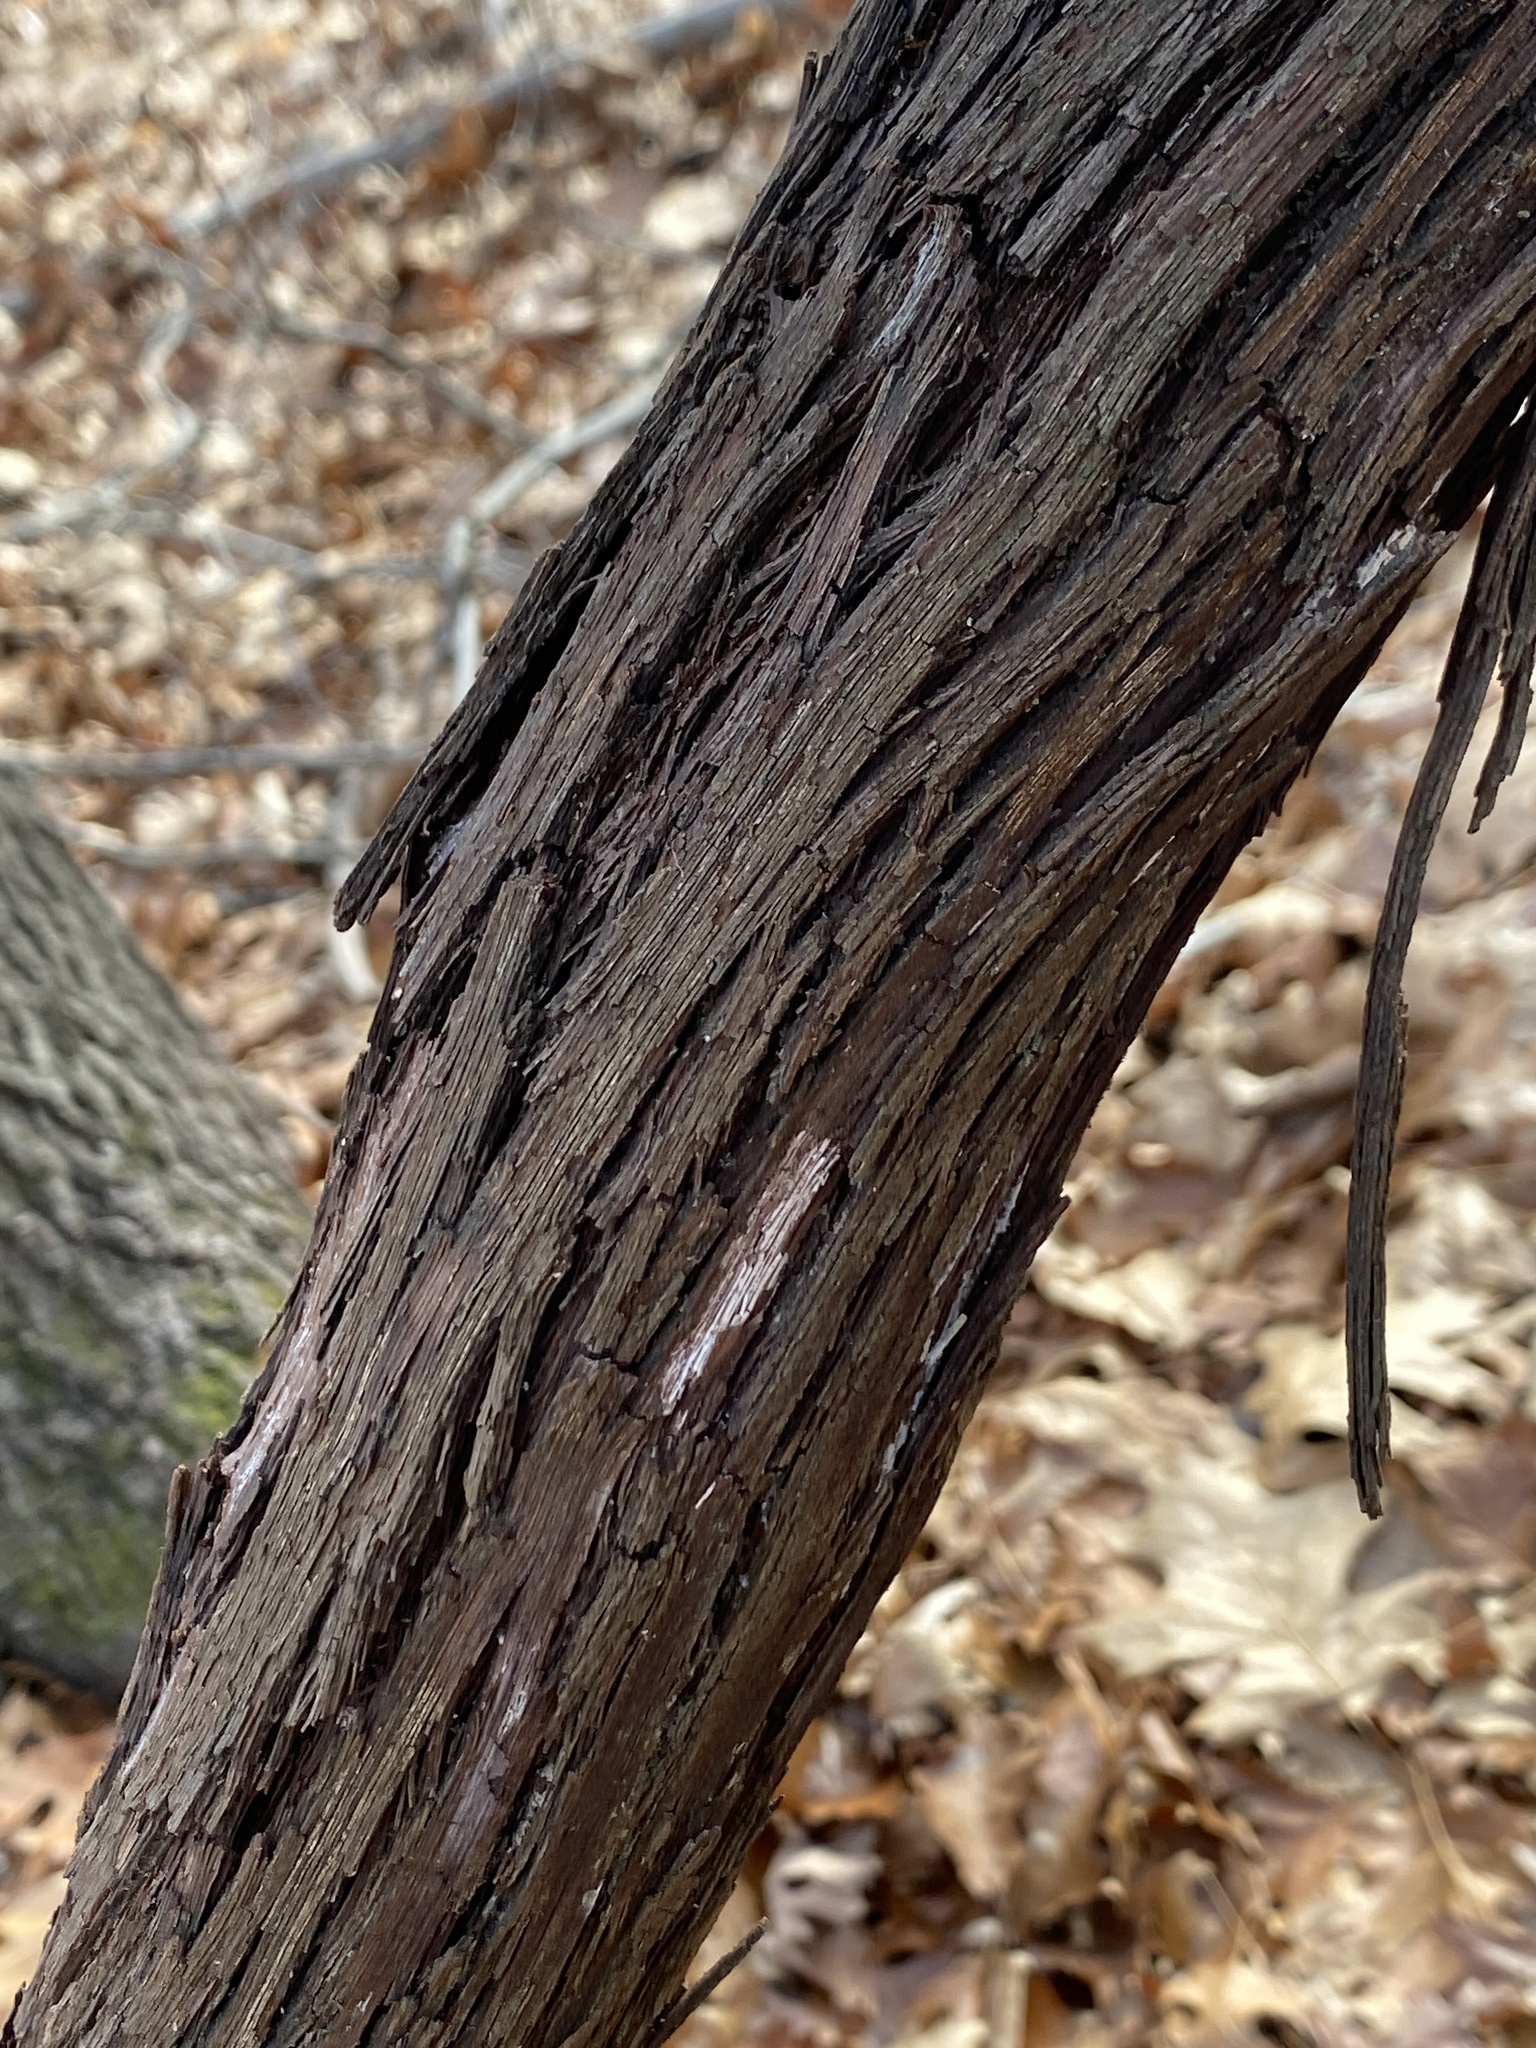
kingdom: Plantae
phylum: Tracheophyta
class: Magnoliopsida
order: Vitales
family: Vitaceae
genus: Vitis
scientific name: Vitis
